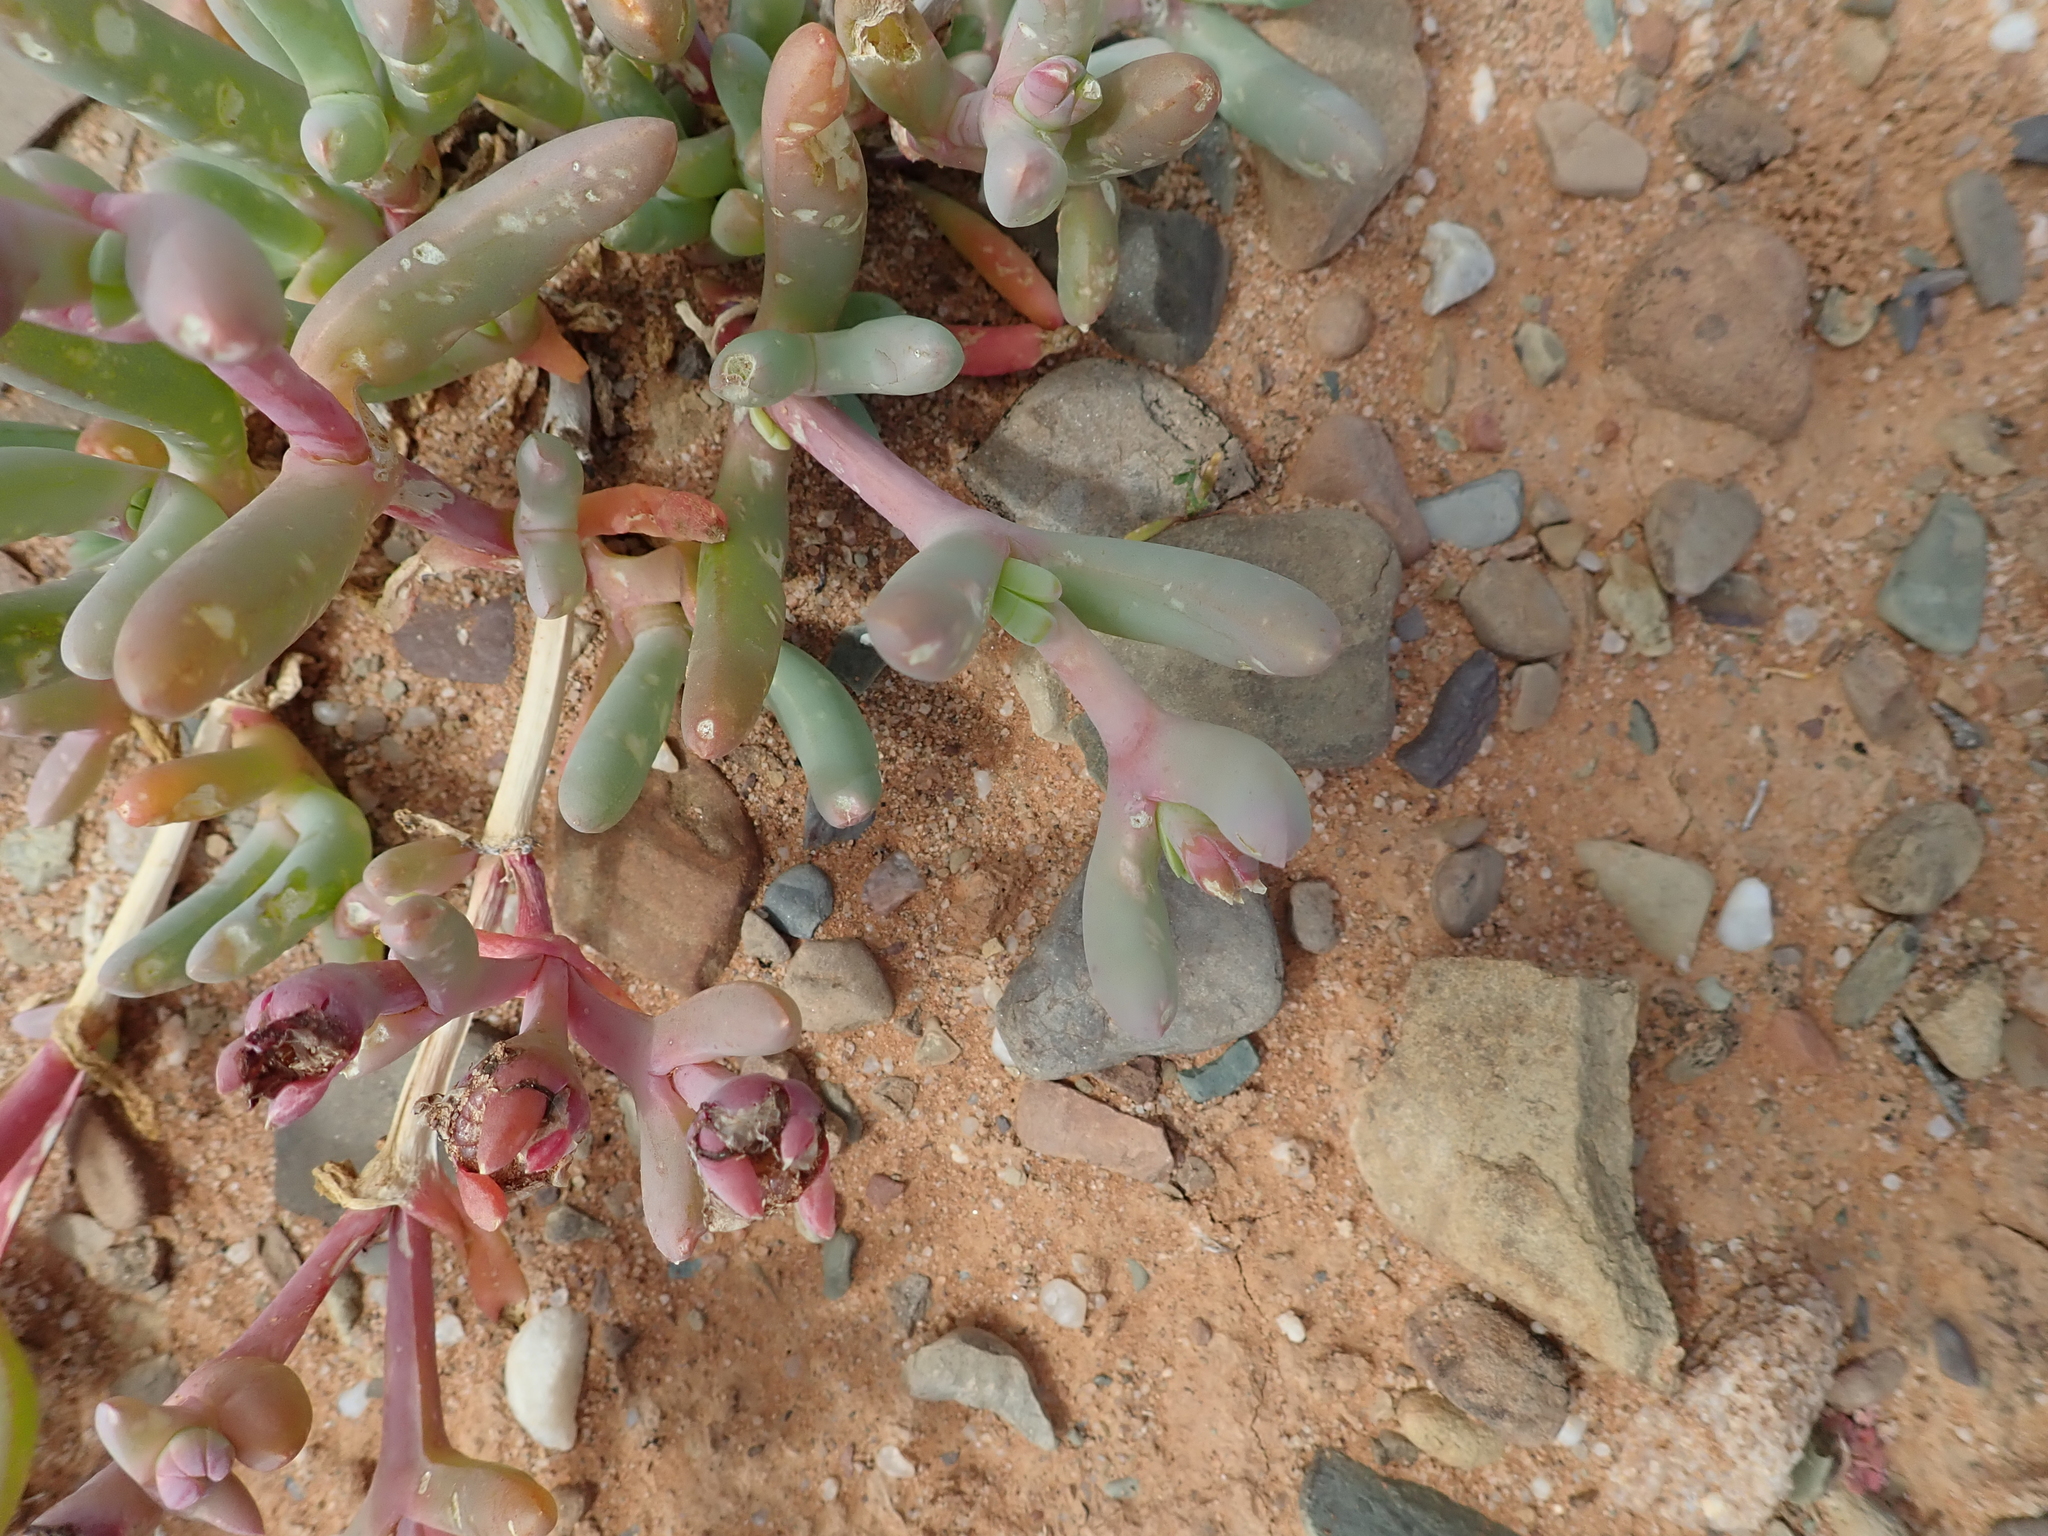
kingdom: Plantae
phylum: Tracheophyta
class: Magnoliopsida
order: Caryophyllales
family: Aizoaceae
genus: Malephora
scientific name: Malephora purpureocrocea
